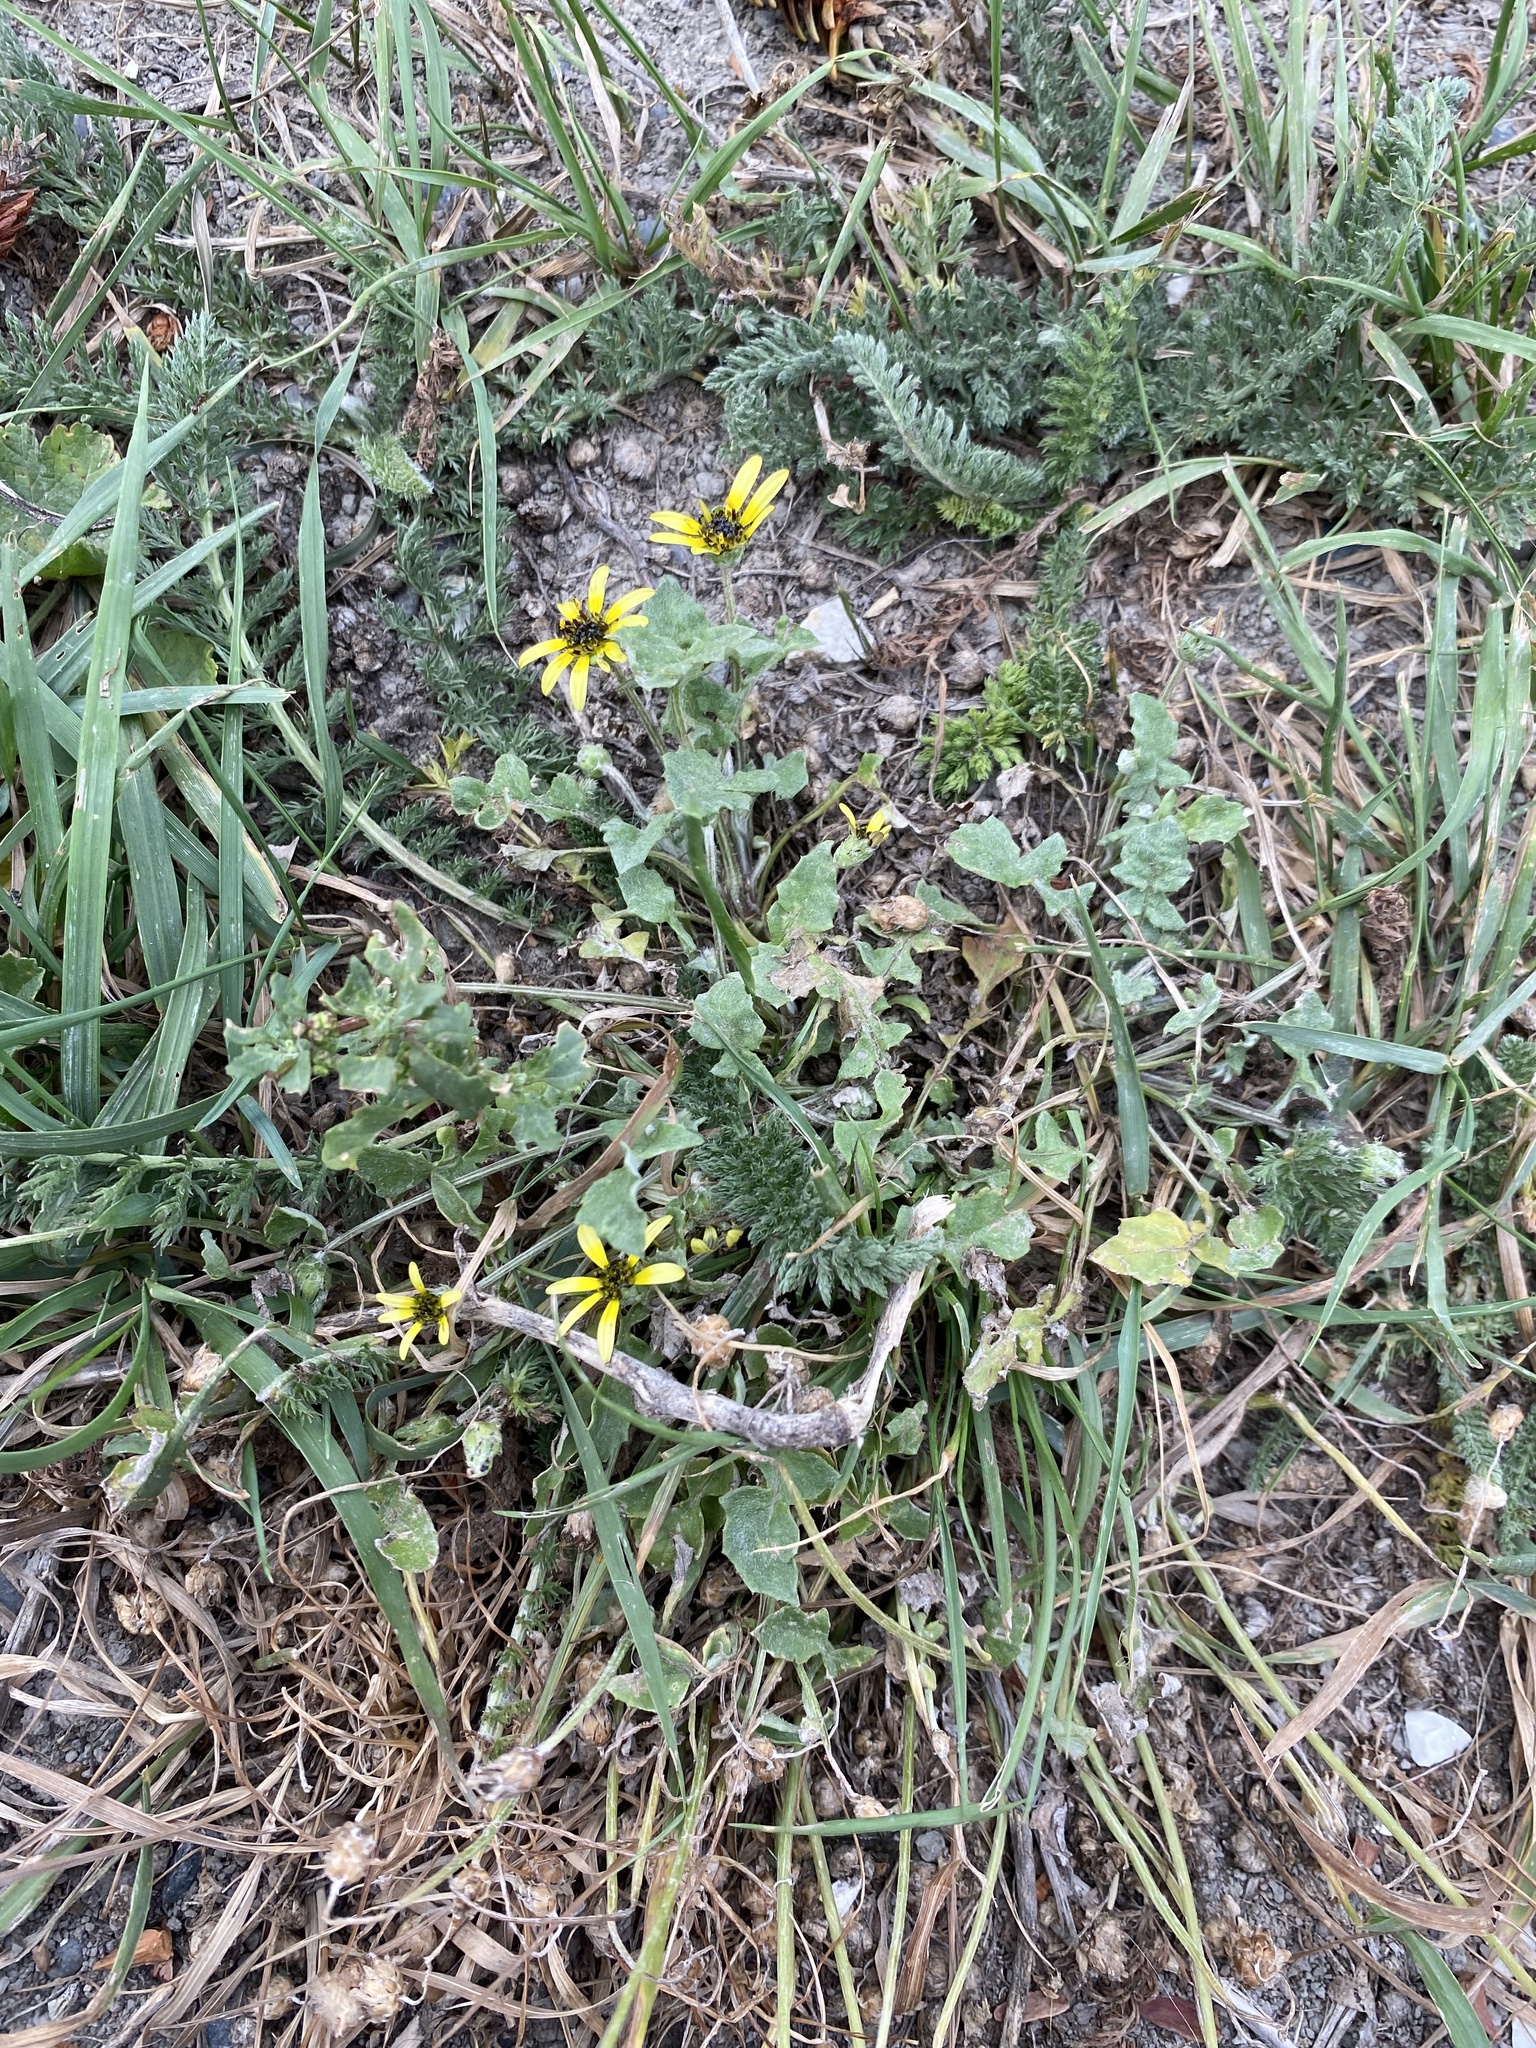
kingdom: Plantae
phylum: Tracheophyta
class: Magnoliopsida
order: Asterales
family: Asteraceae
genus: Arctotheca
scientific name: Arctotheca calendula
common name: Capeweed
